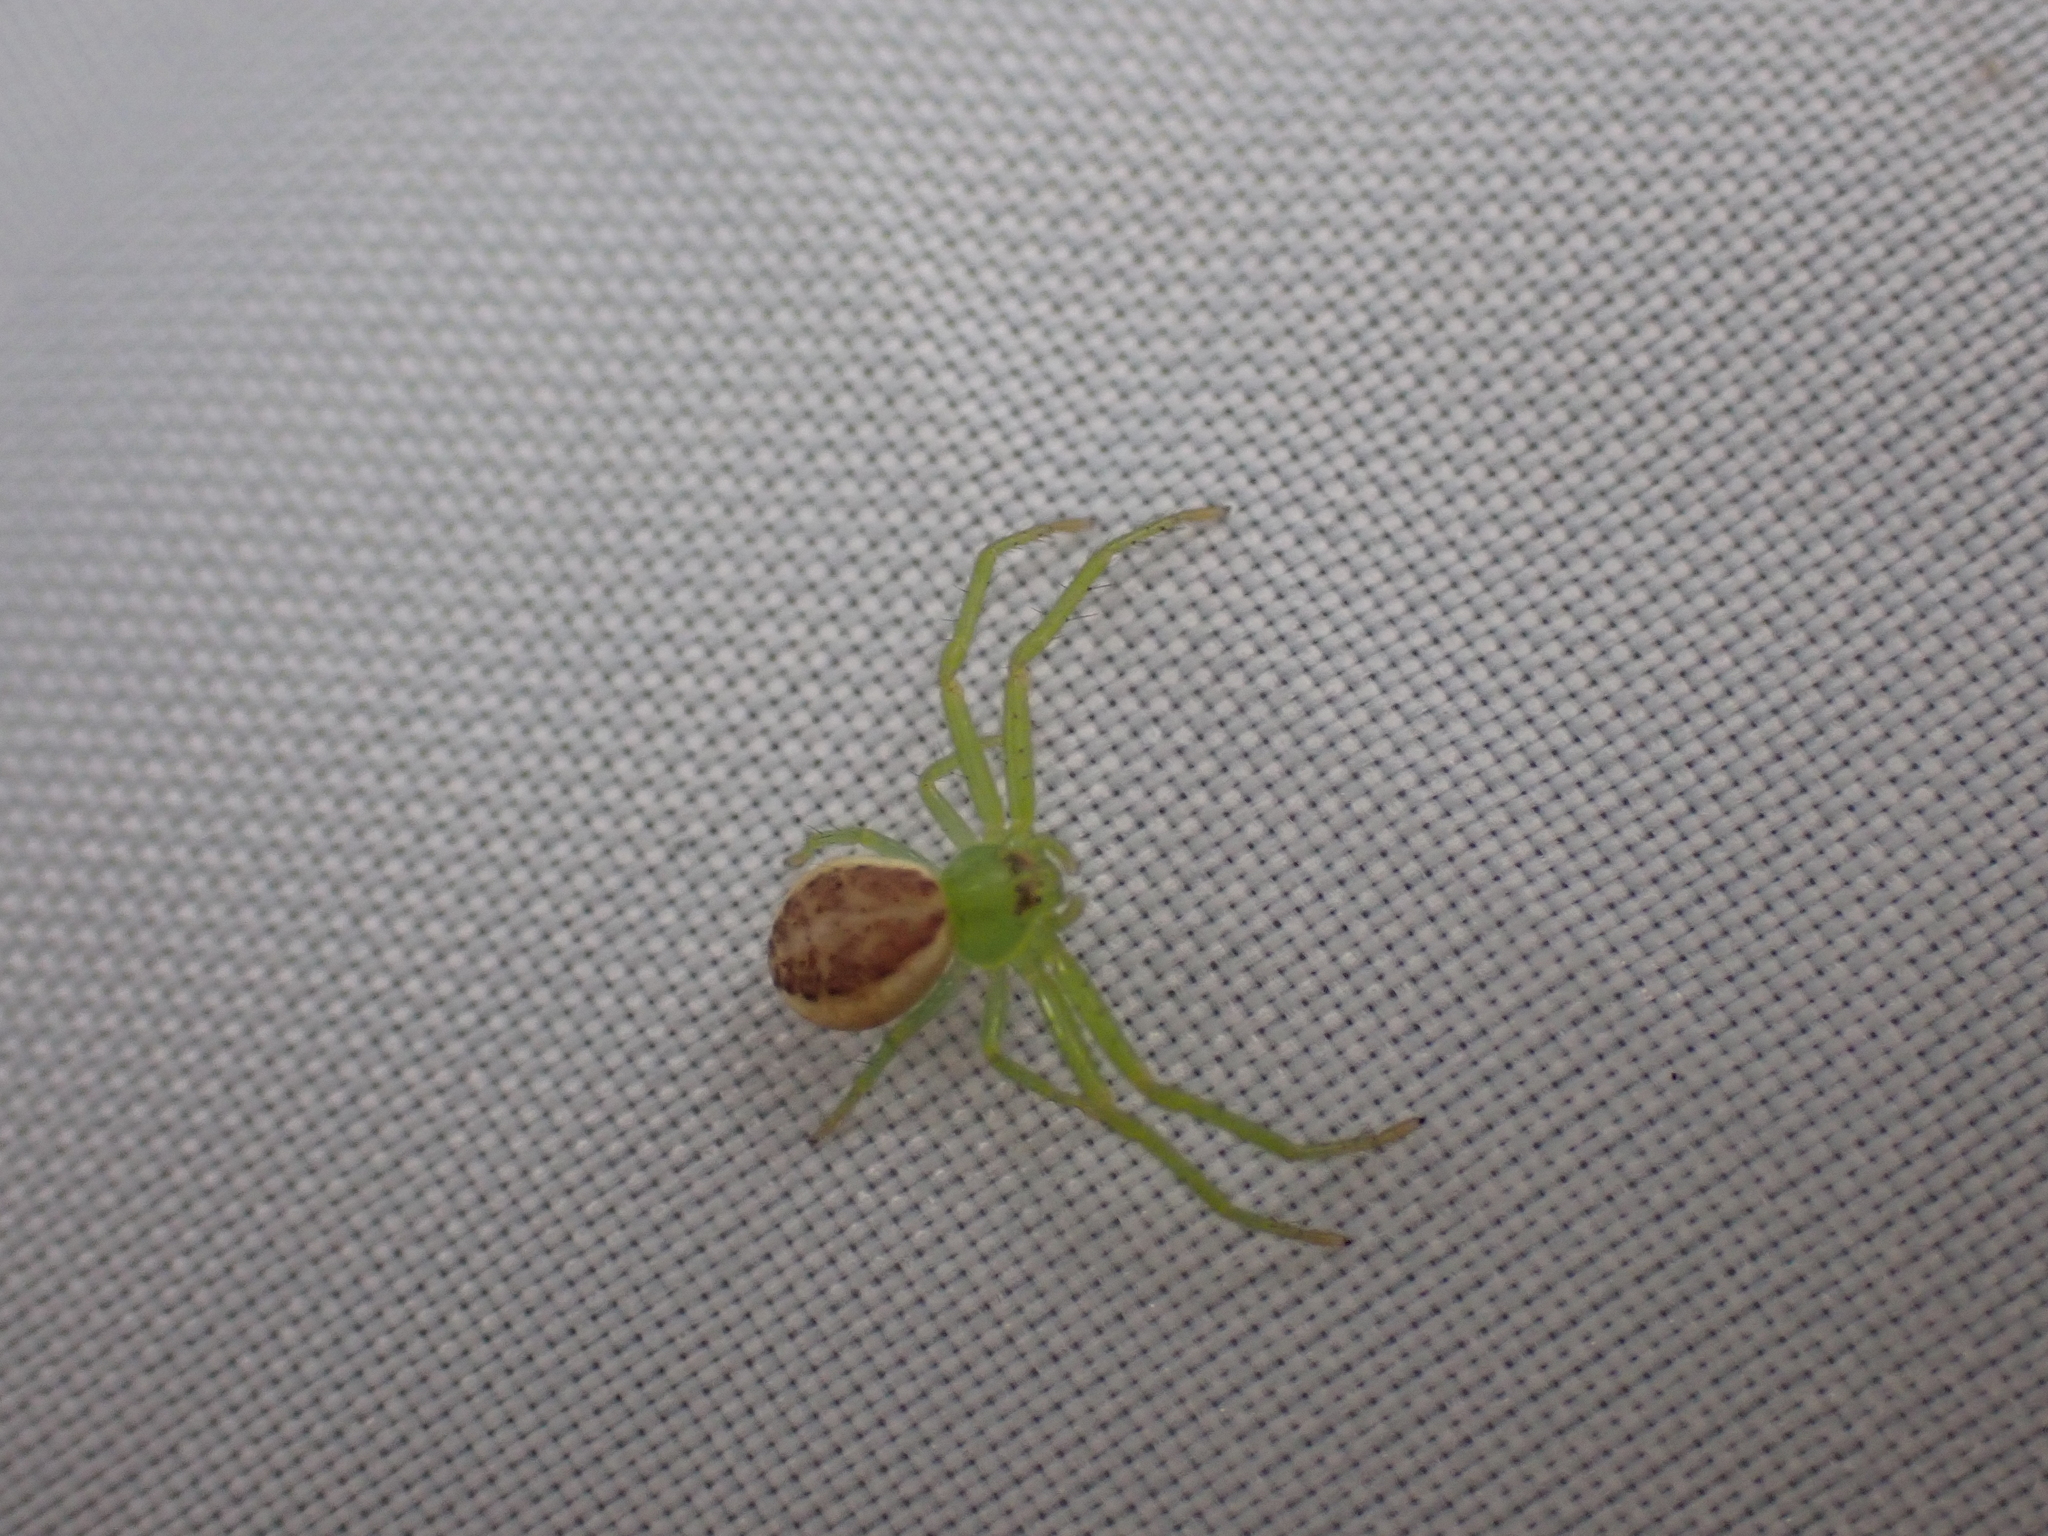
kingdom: Animalia
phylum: Arthropoda
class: Arachnida
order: Araneae
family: Thomisidae
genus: Diaea
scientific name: Diaea dorsata
